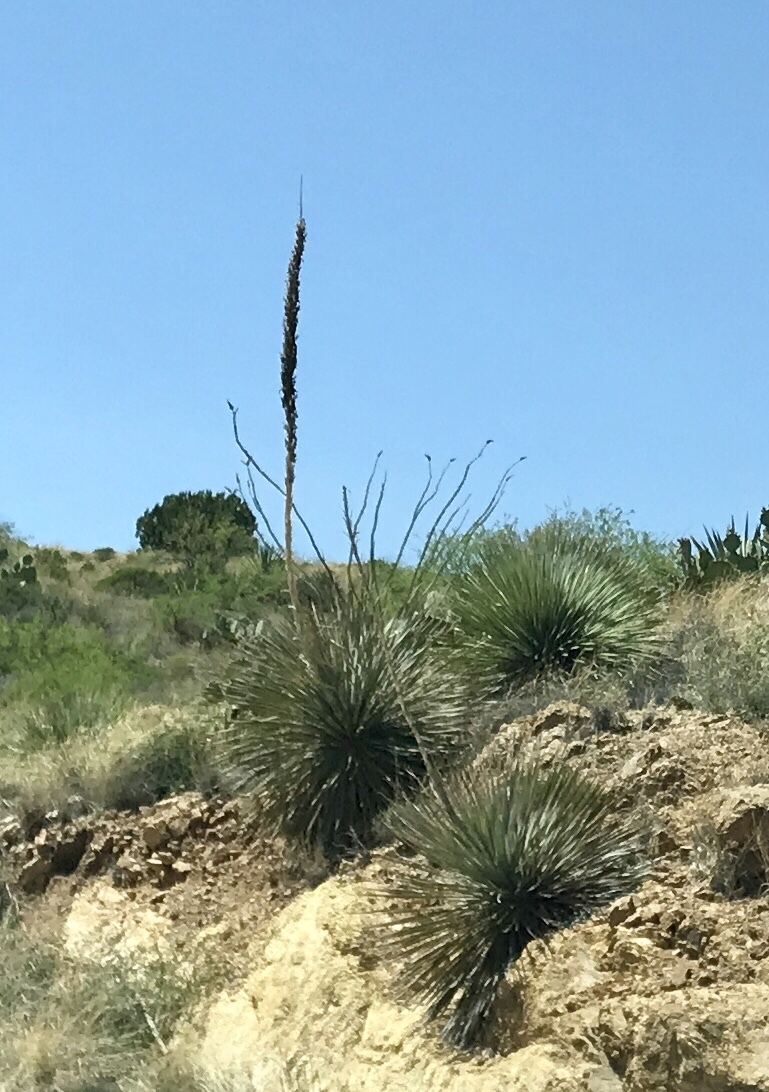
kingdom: Plantae
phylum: Tracheophyta
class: Liliopsida
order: Asparagales
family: Asparagaceae
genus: Dasylirion
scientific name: Dasylirion wheeleri
